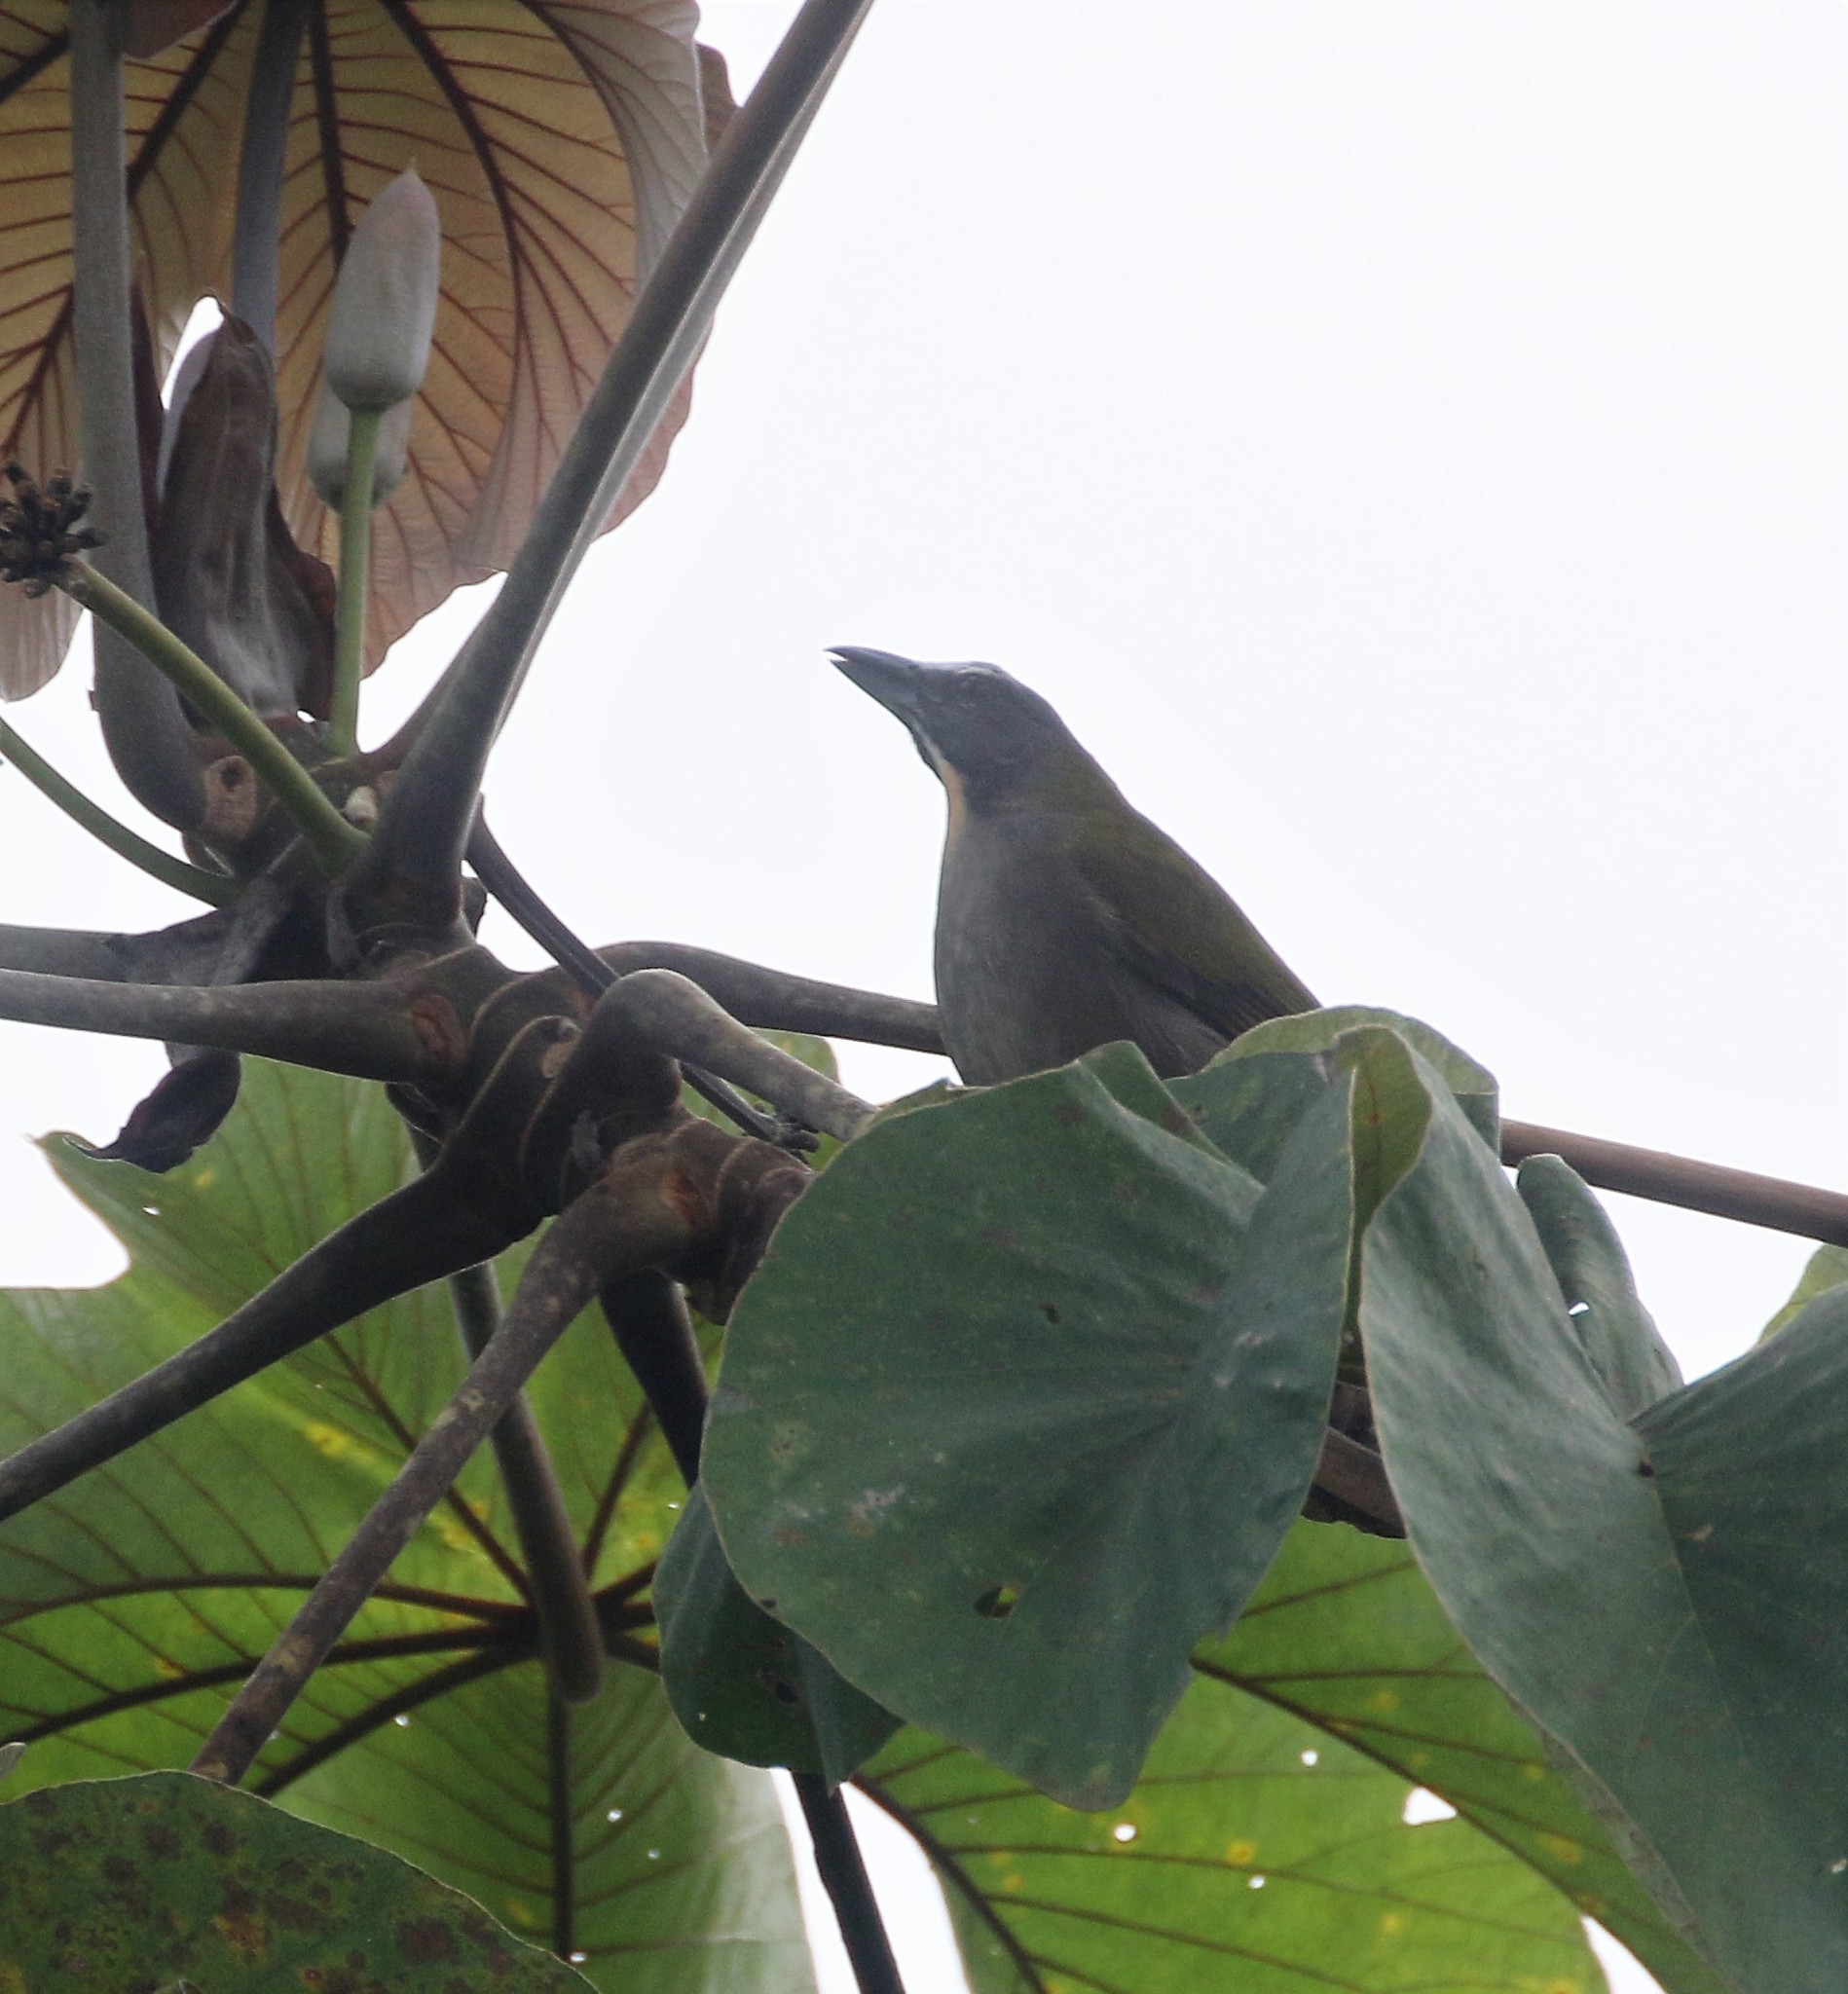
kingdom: Animalia
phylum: Chordata
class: Aves
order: Passeriformes
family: Thraupidae
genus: Saltator
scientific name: Saltator maximus
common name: Buff-throated saltator
